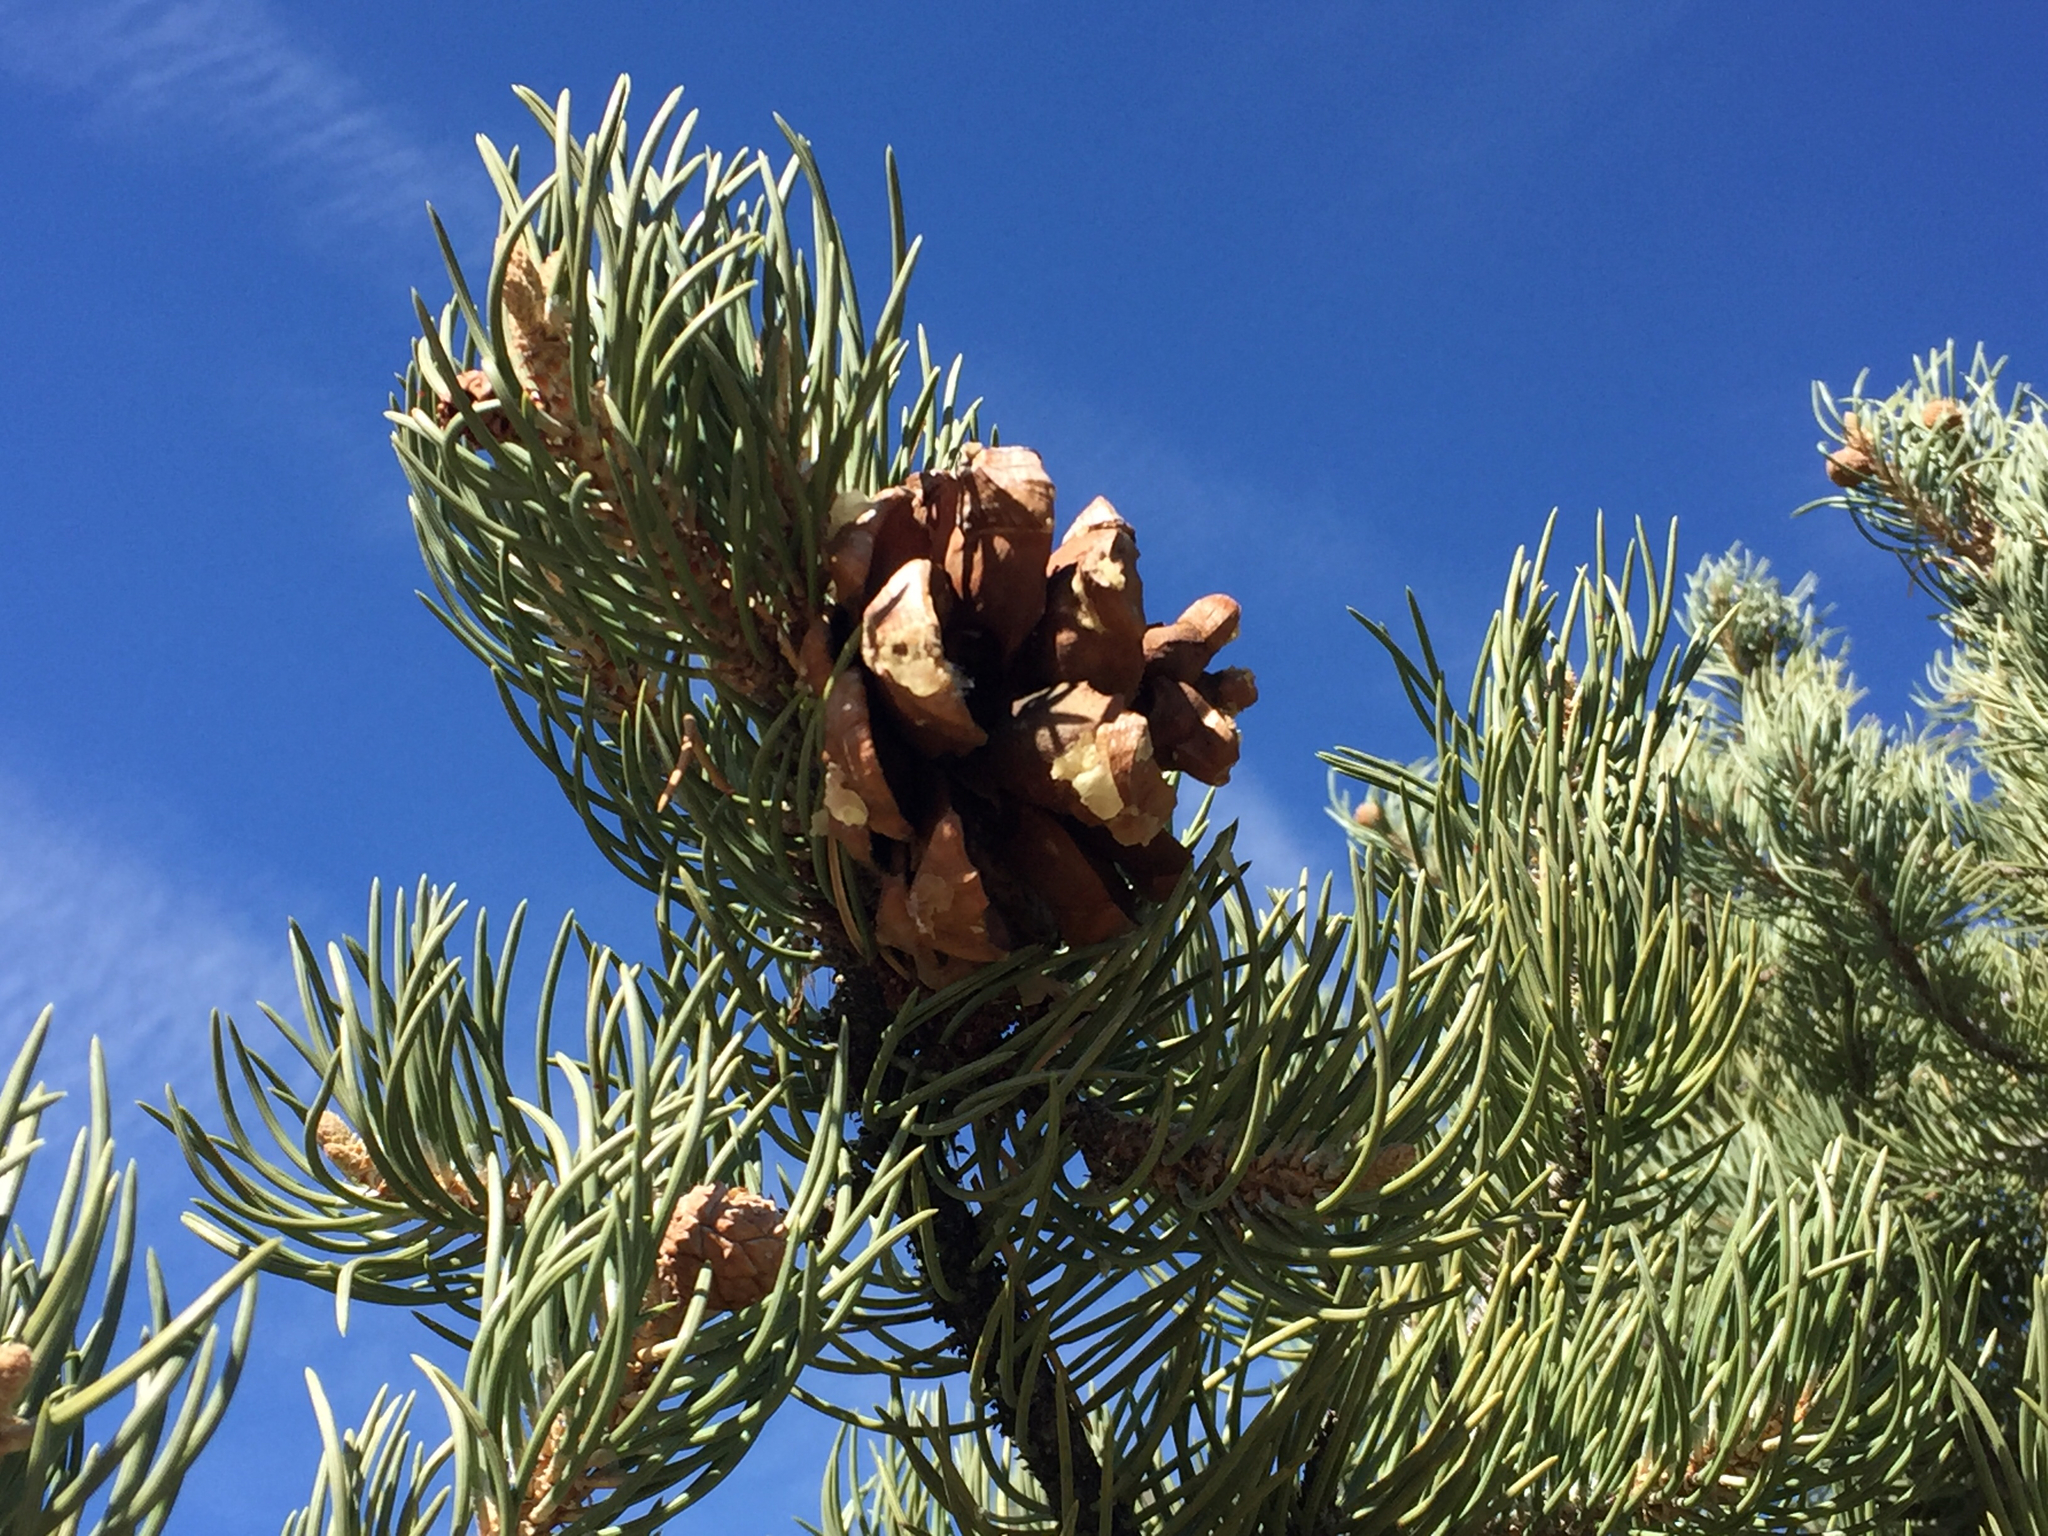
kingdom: Plantae
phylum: Tracheophyta
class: Pinopsida
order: Pinales
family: Pinaceae
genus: Pinus
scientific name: Pinus monophylla
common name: One-leaved nut pine
